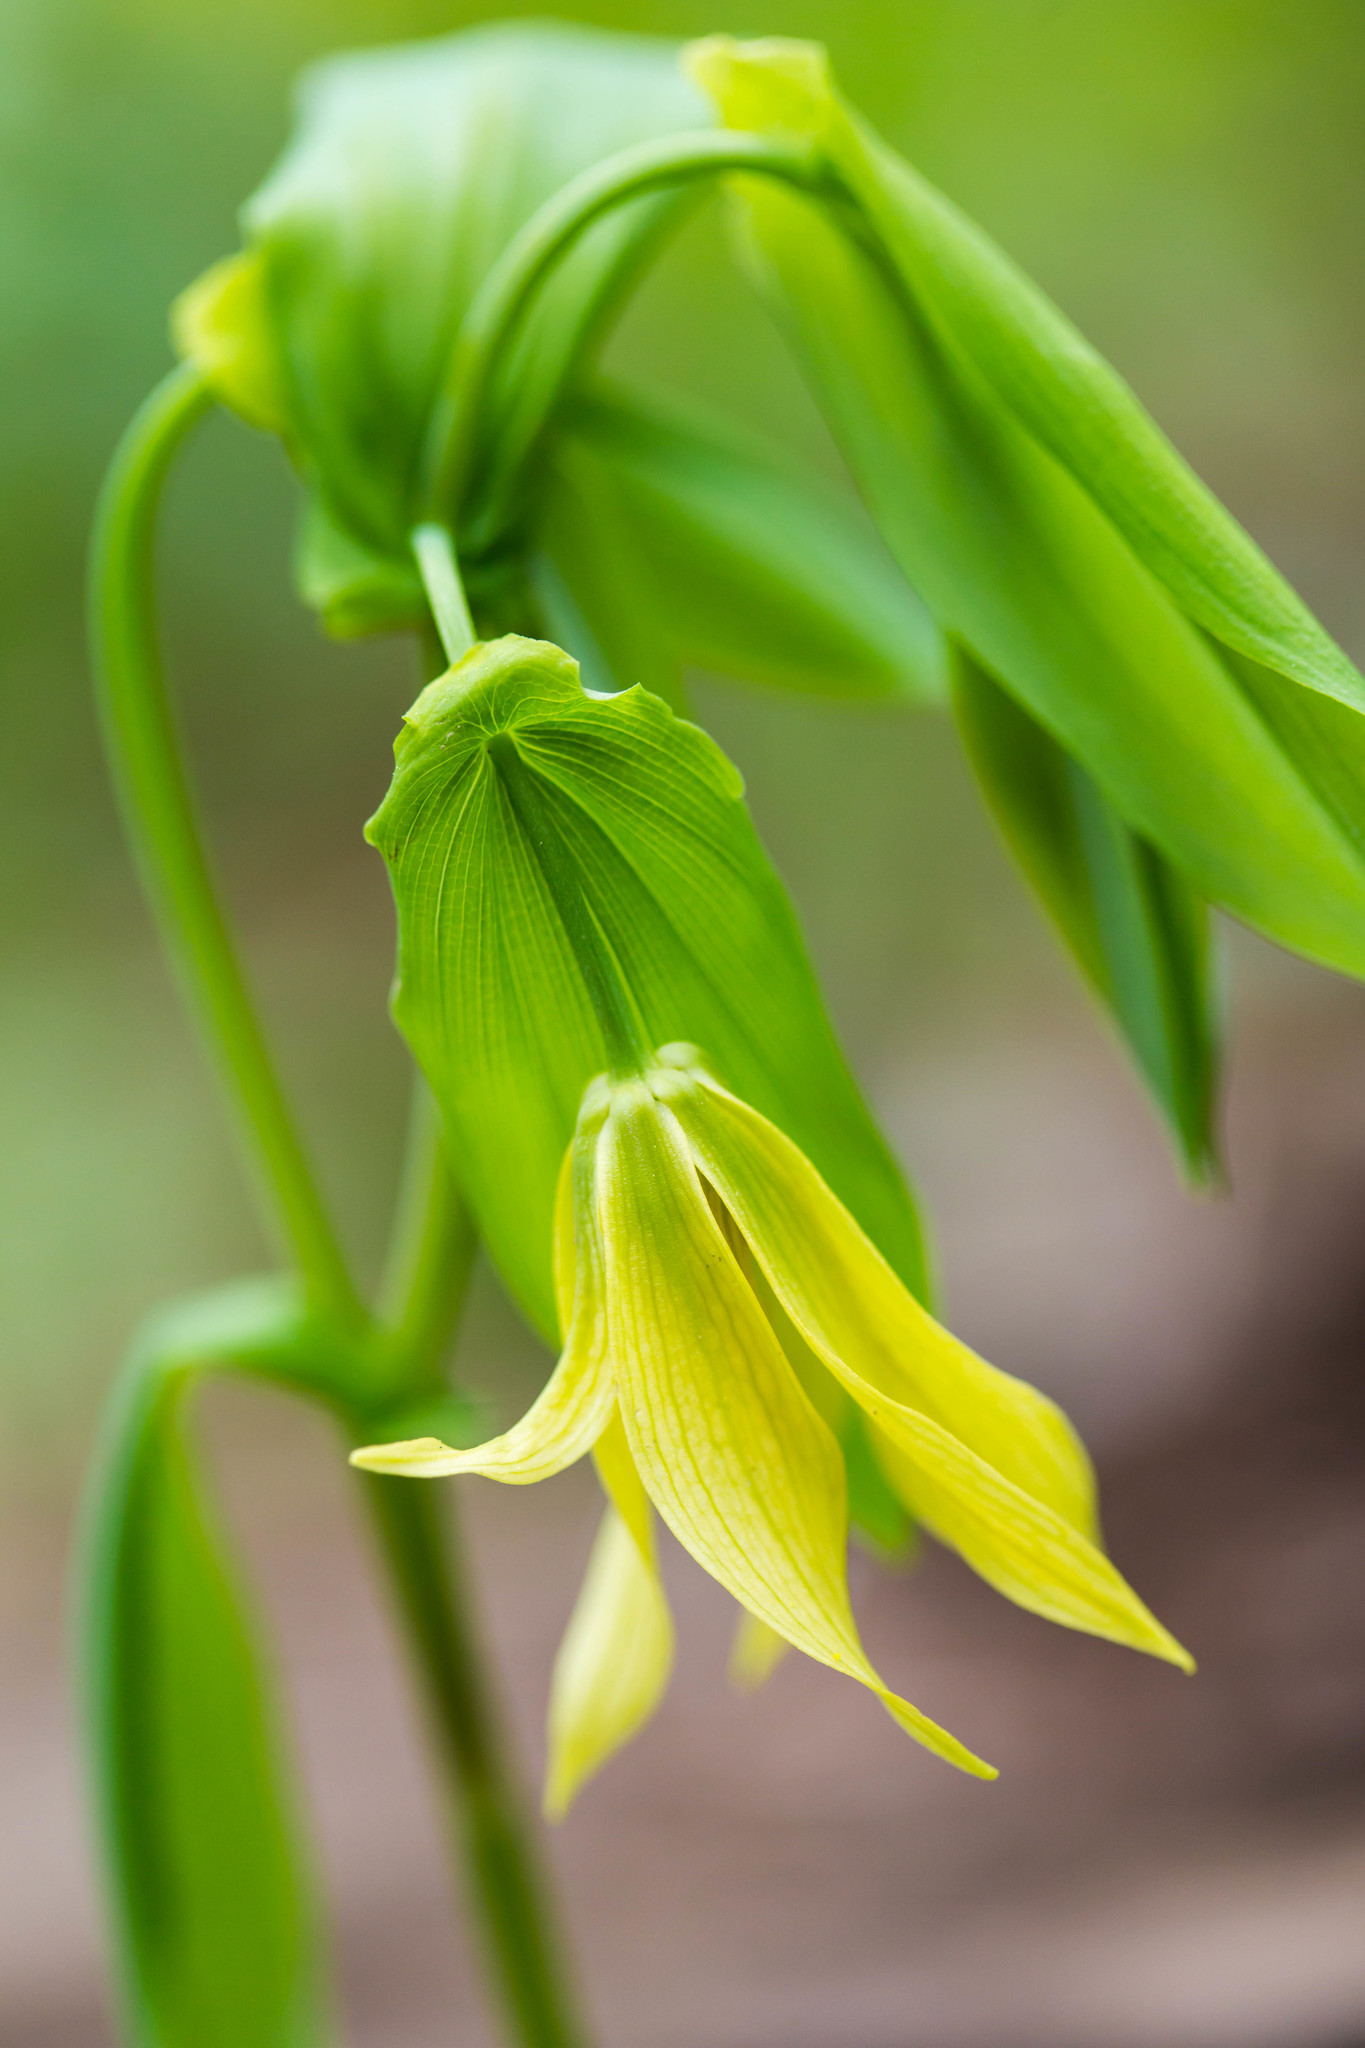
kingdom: Plantae
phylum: Tracheophyta
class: Liliopsida
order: Liliales
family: Colchicaceae
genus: Uvularia
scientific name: Uvularia grandiflora
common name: Bellwort
